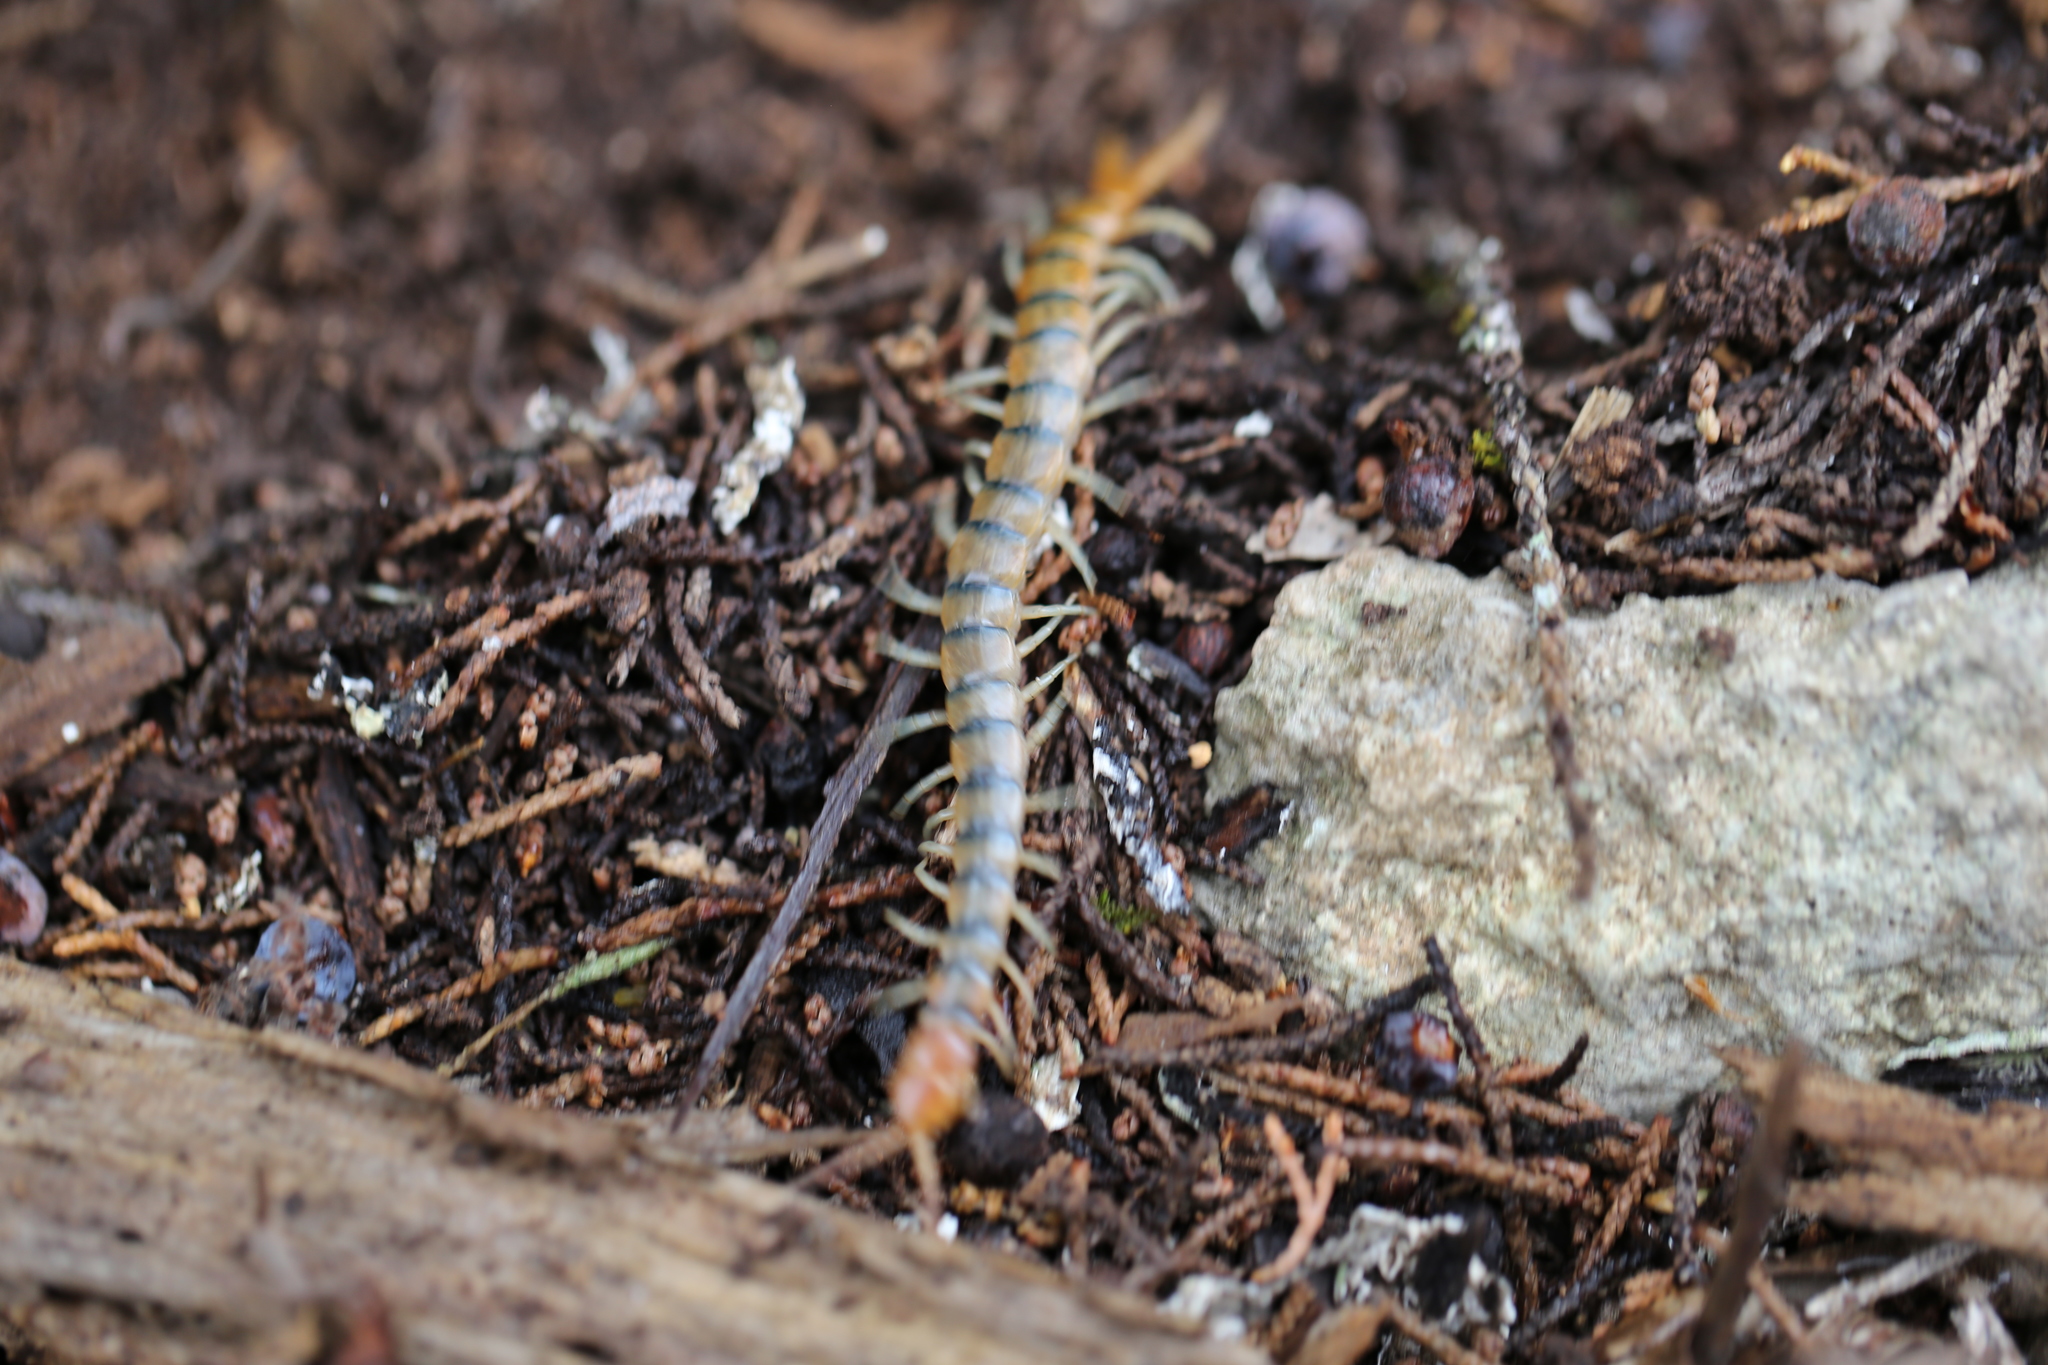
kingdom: Animalia
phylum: Arthropoda
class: Chilopoda
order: Scolopendromorpha
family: Scolopendridae
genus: Scolopendra
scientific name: Scolopendra polymorpha
